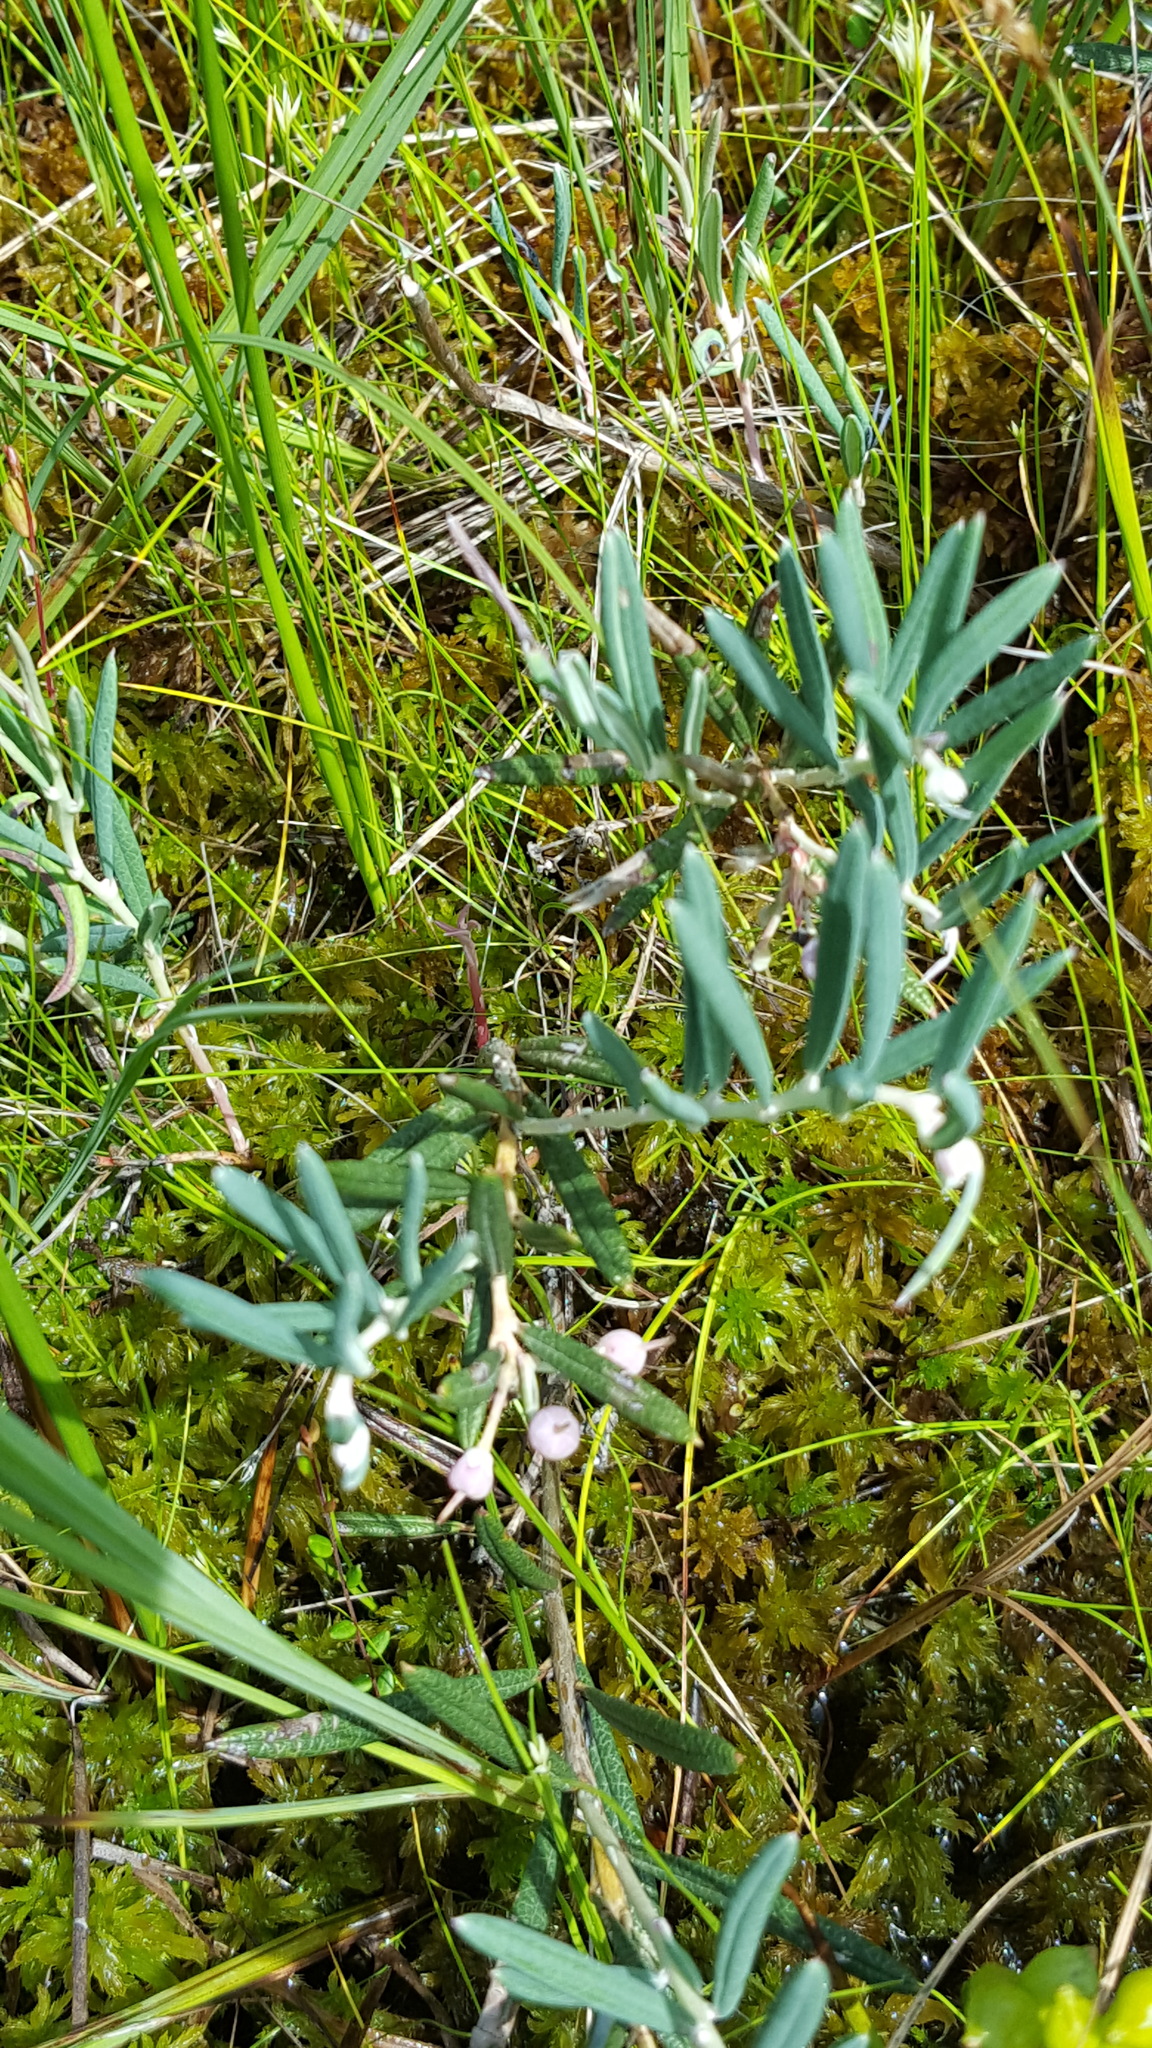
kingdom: Plantae
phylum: Tracheophyta
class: Magnoliopsida
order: Ericales
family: Ericaceae
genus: Andromeda
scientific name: Andromeda polifolia
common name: Bog-rosemary
